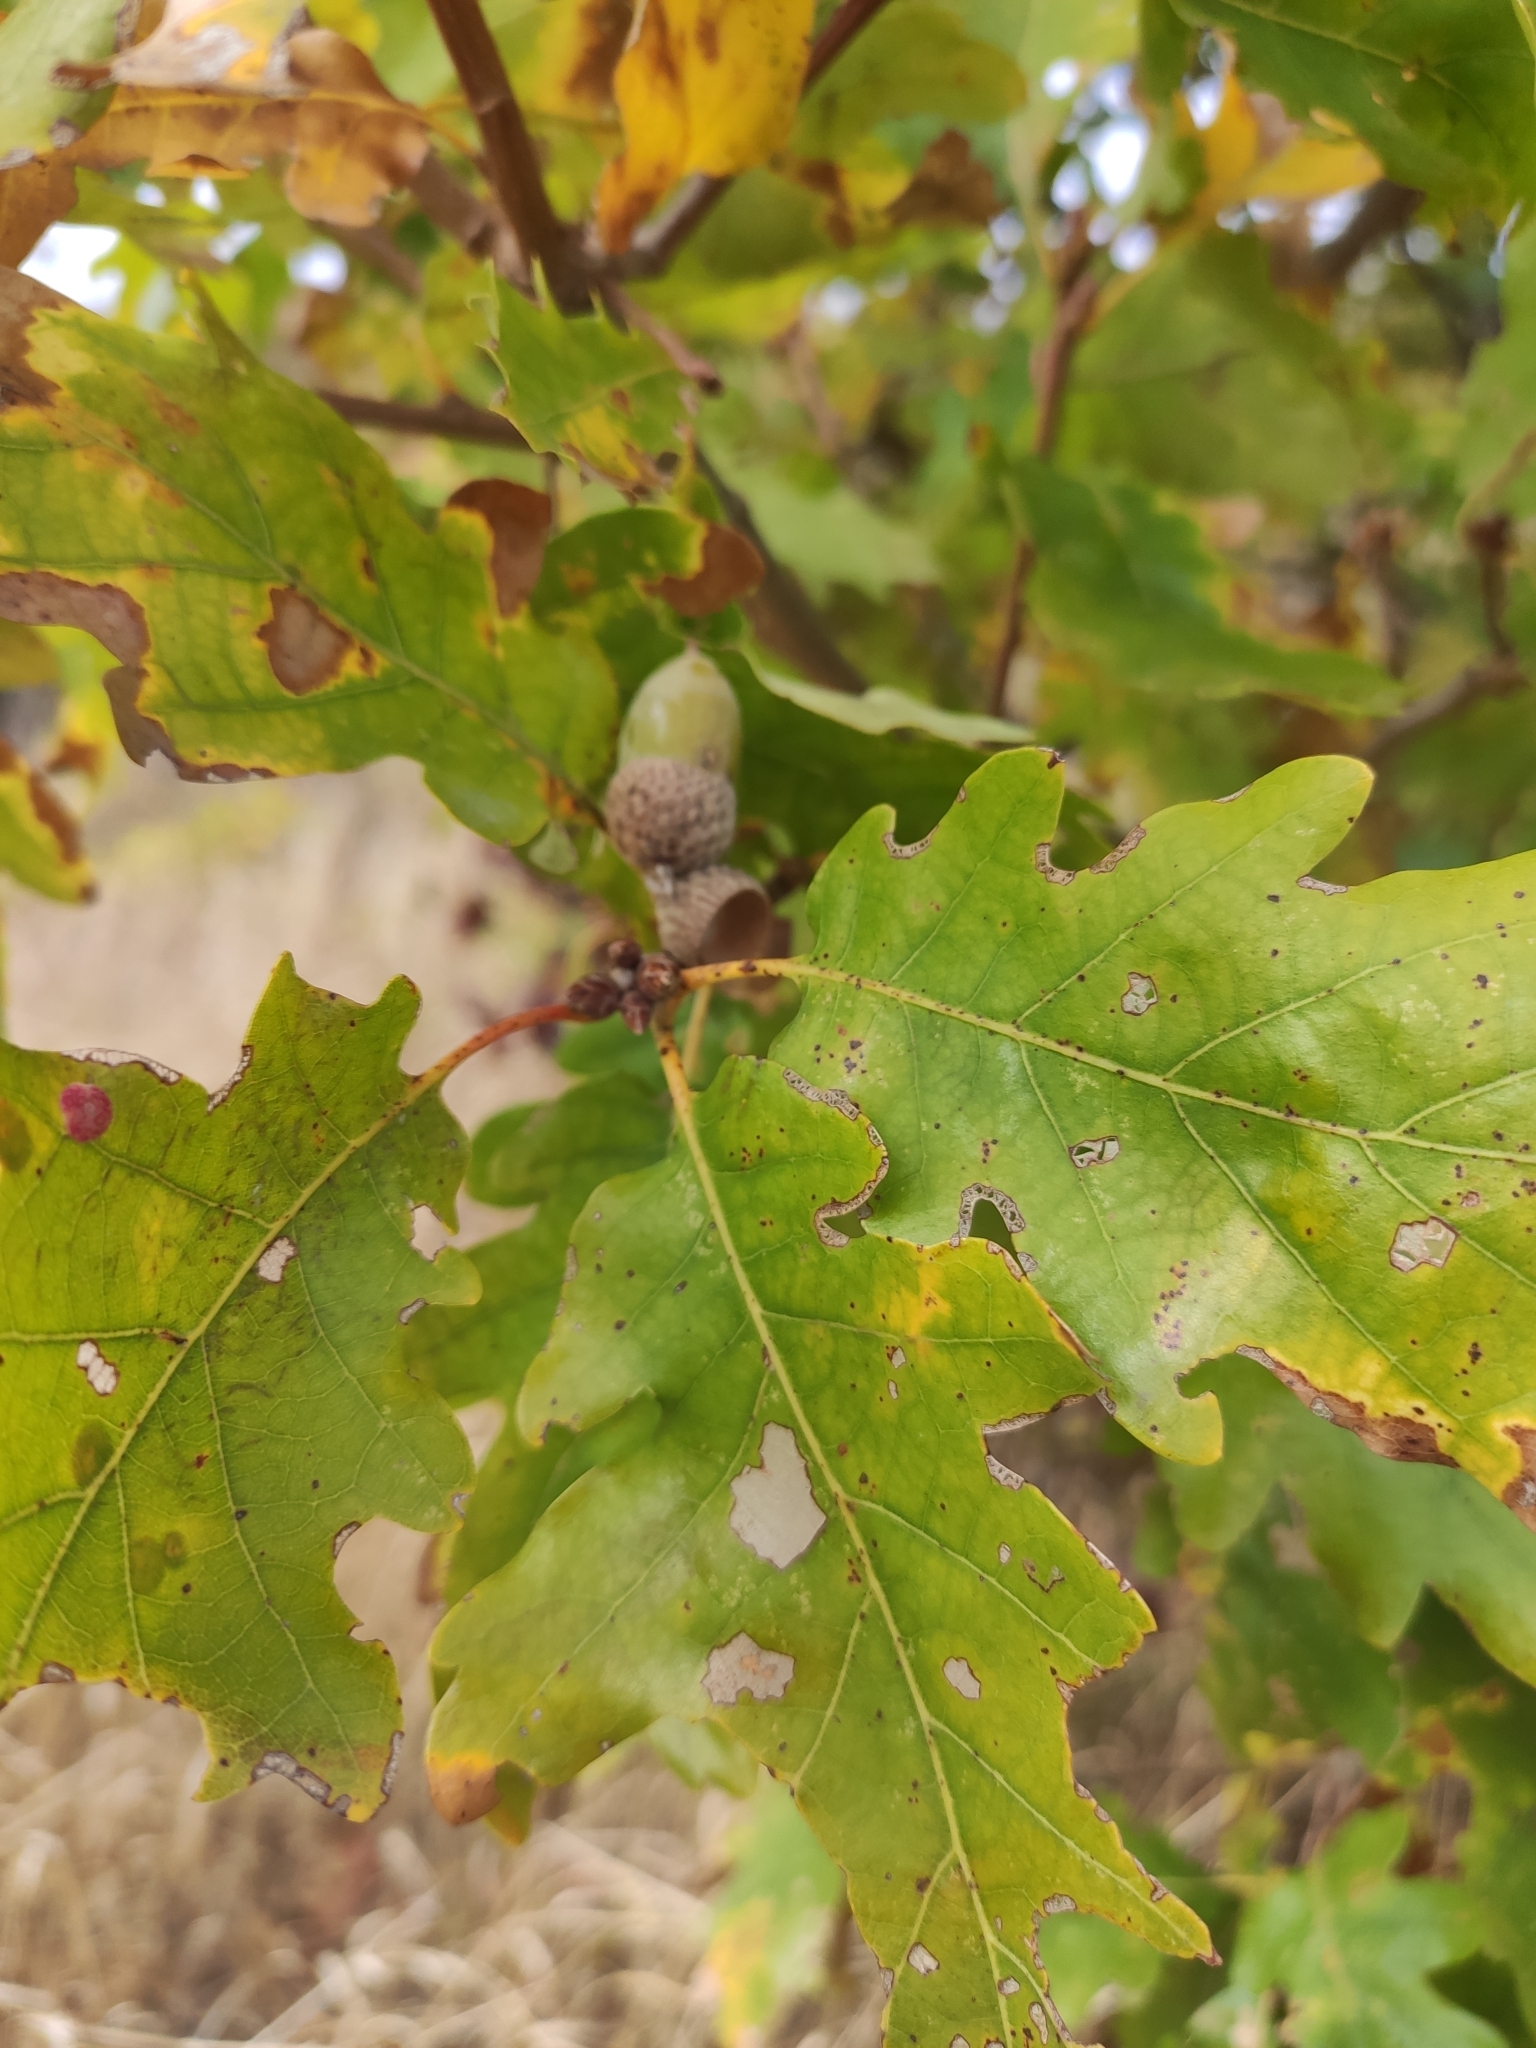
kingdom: Plantae
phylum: Tracheophyta
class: Magnoliopsida
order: Fagales
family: Fagaceae
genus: Quercus
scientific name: Quercus robur
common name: Pedunculate oak
